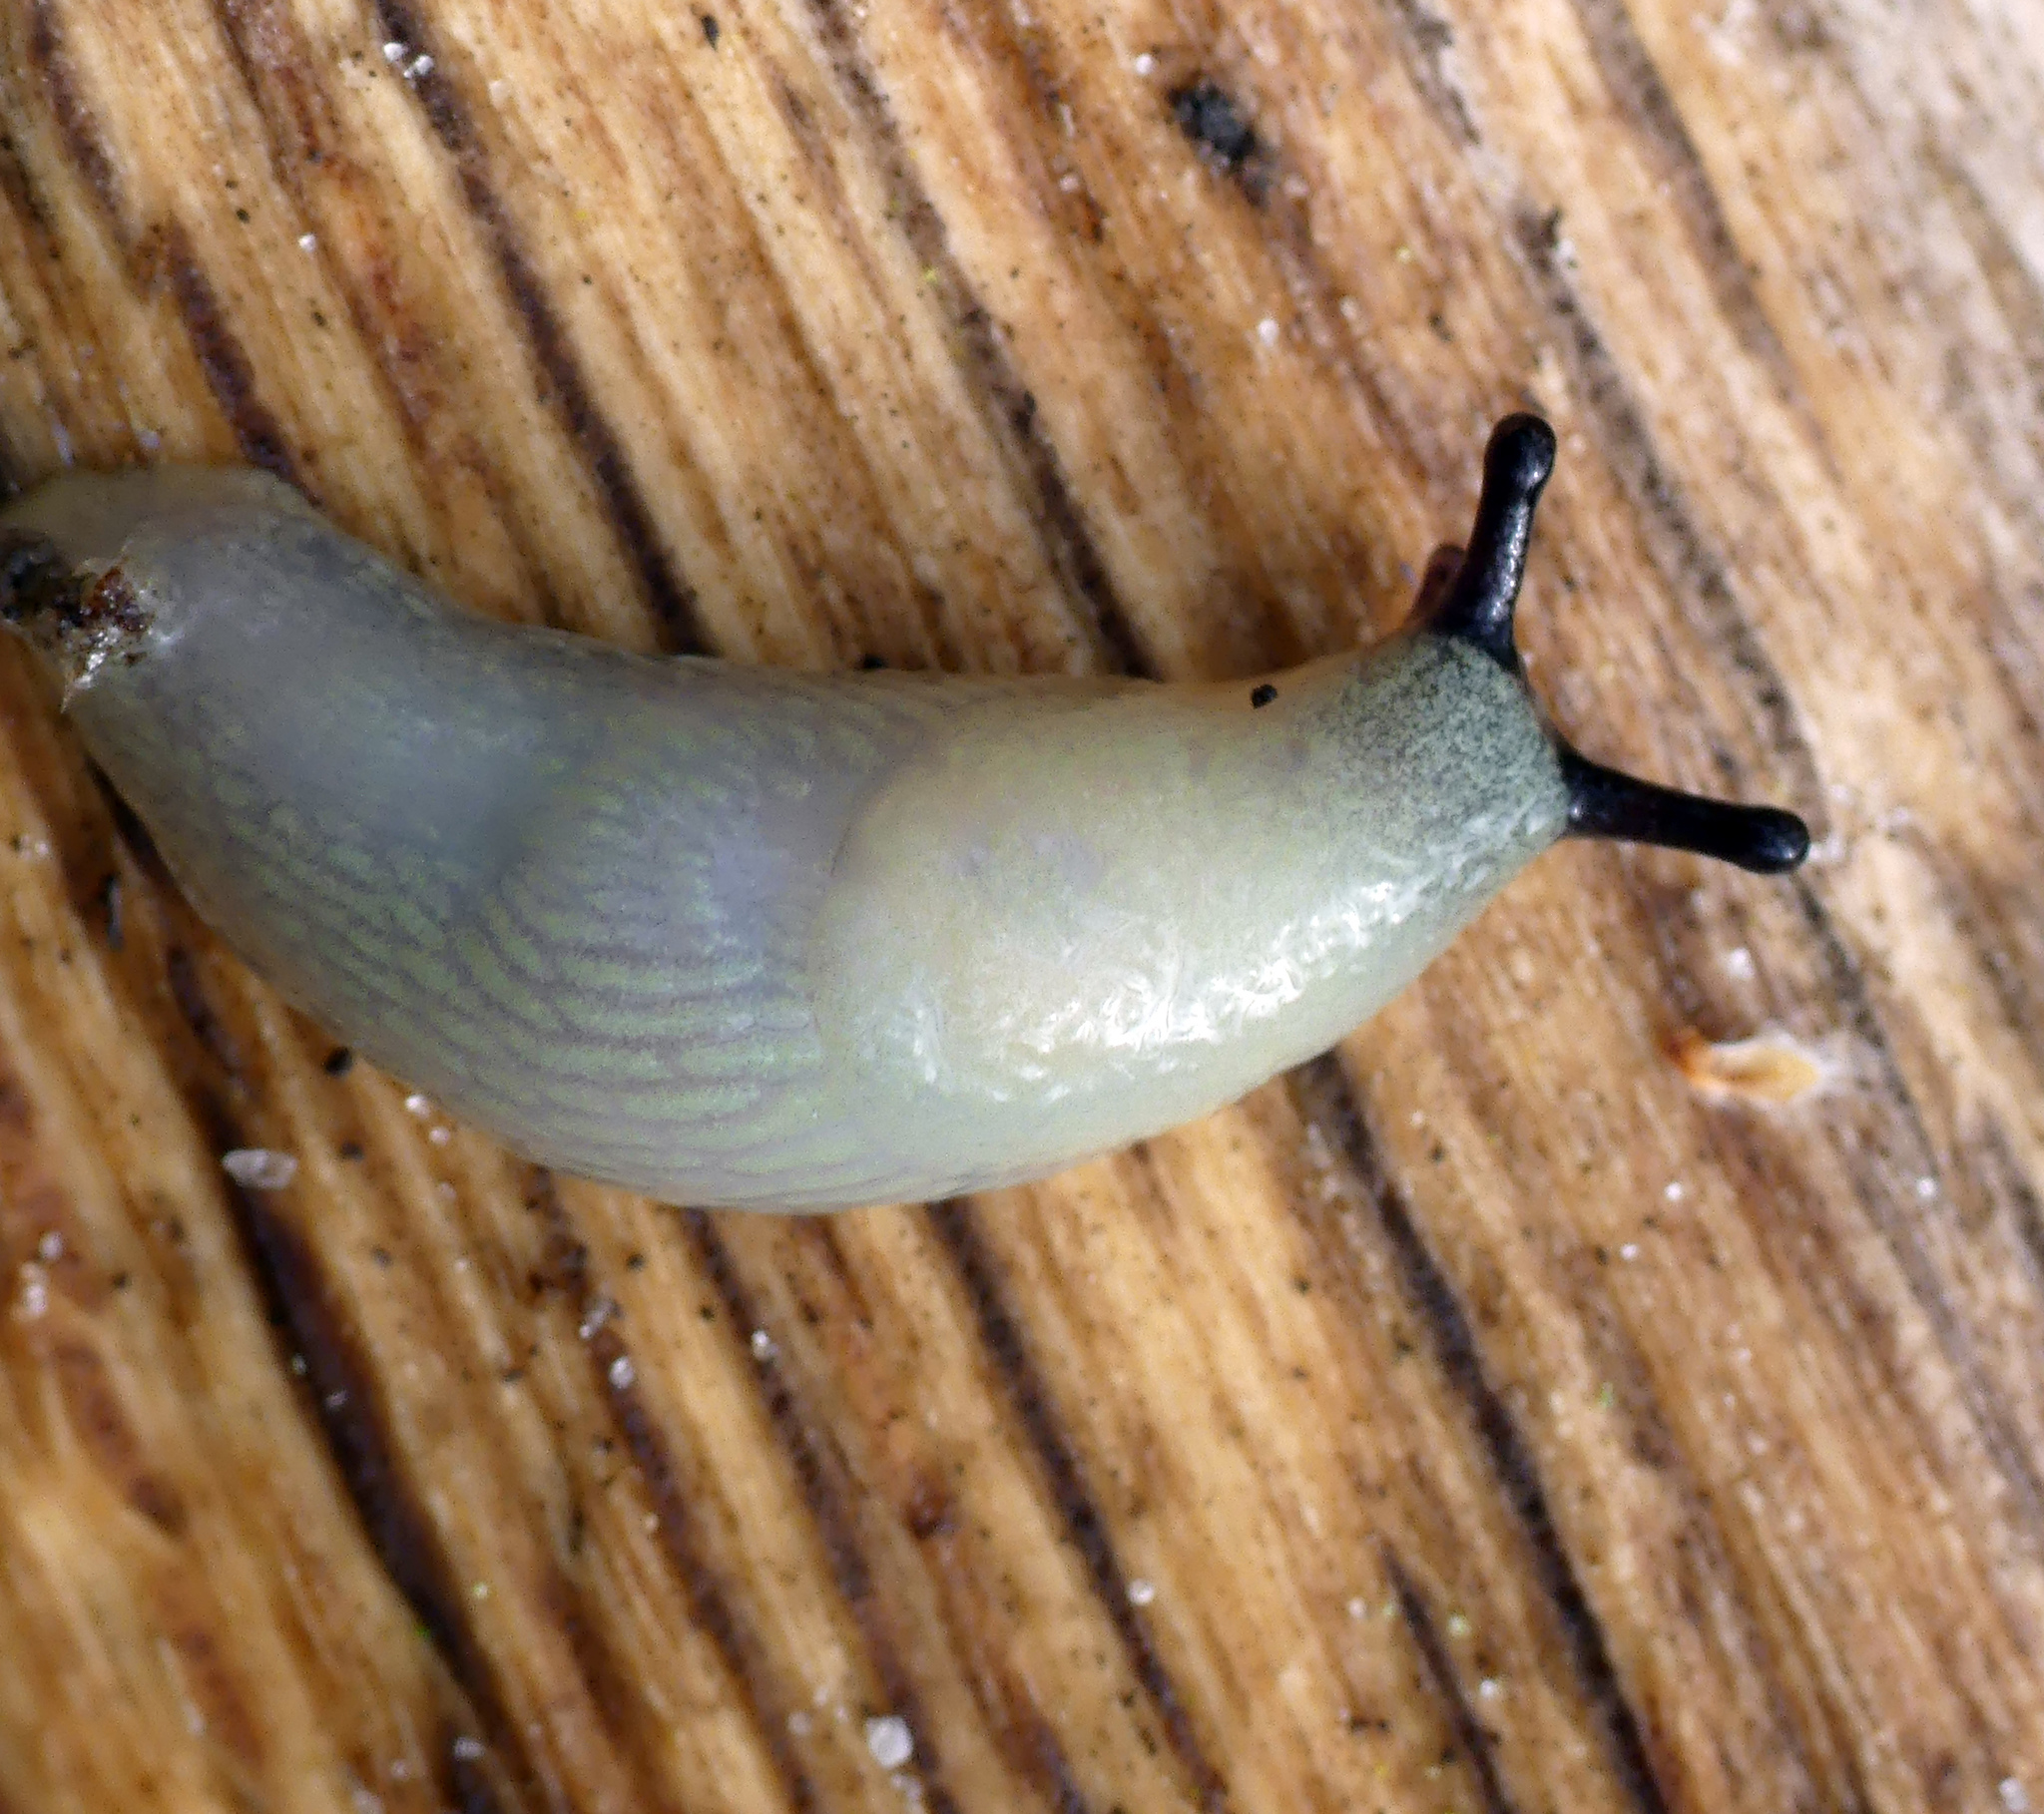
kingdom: Animalia
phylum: Mollusca
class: Gastropoda
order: Stylommatophora
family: Arionidae
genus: Arion
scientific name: Arion ater
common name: Black arion
